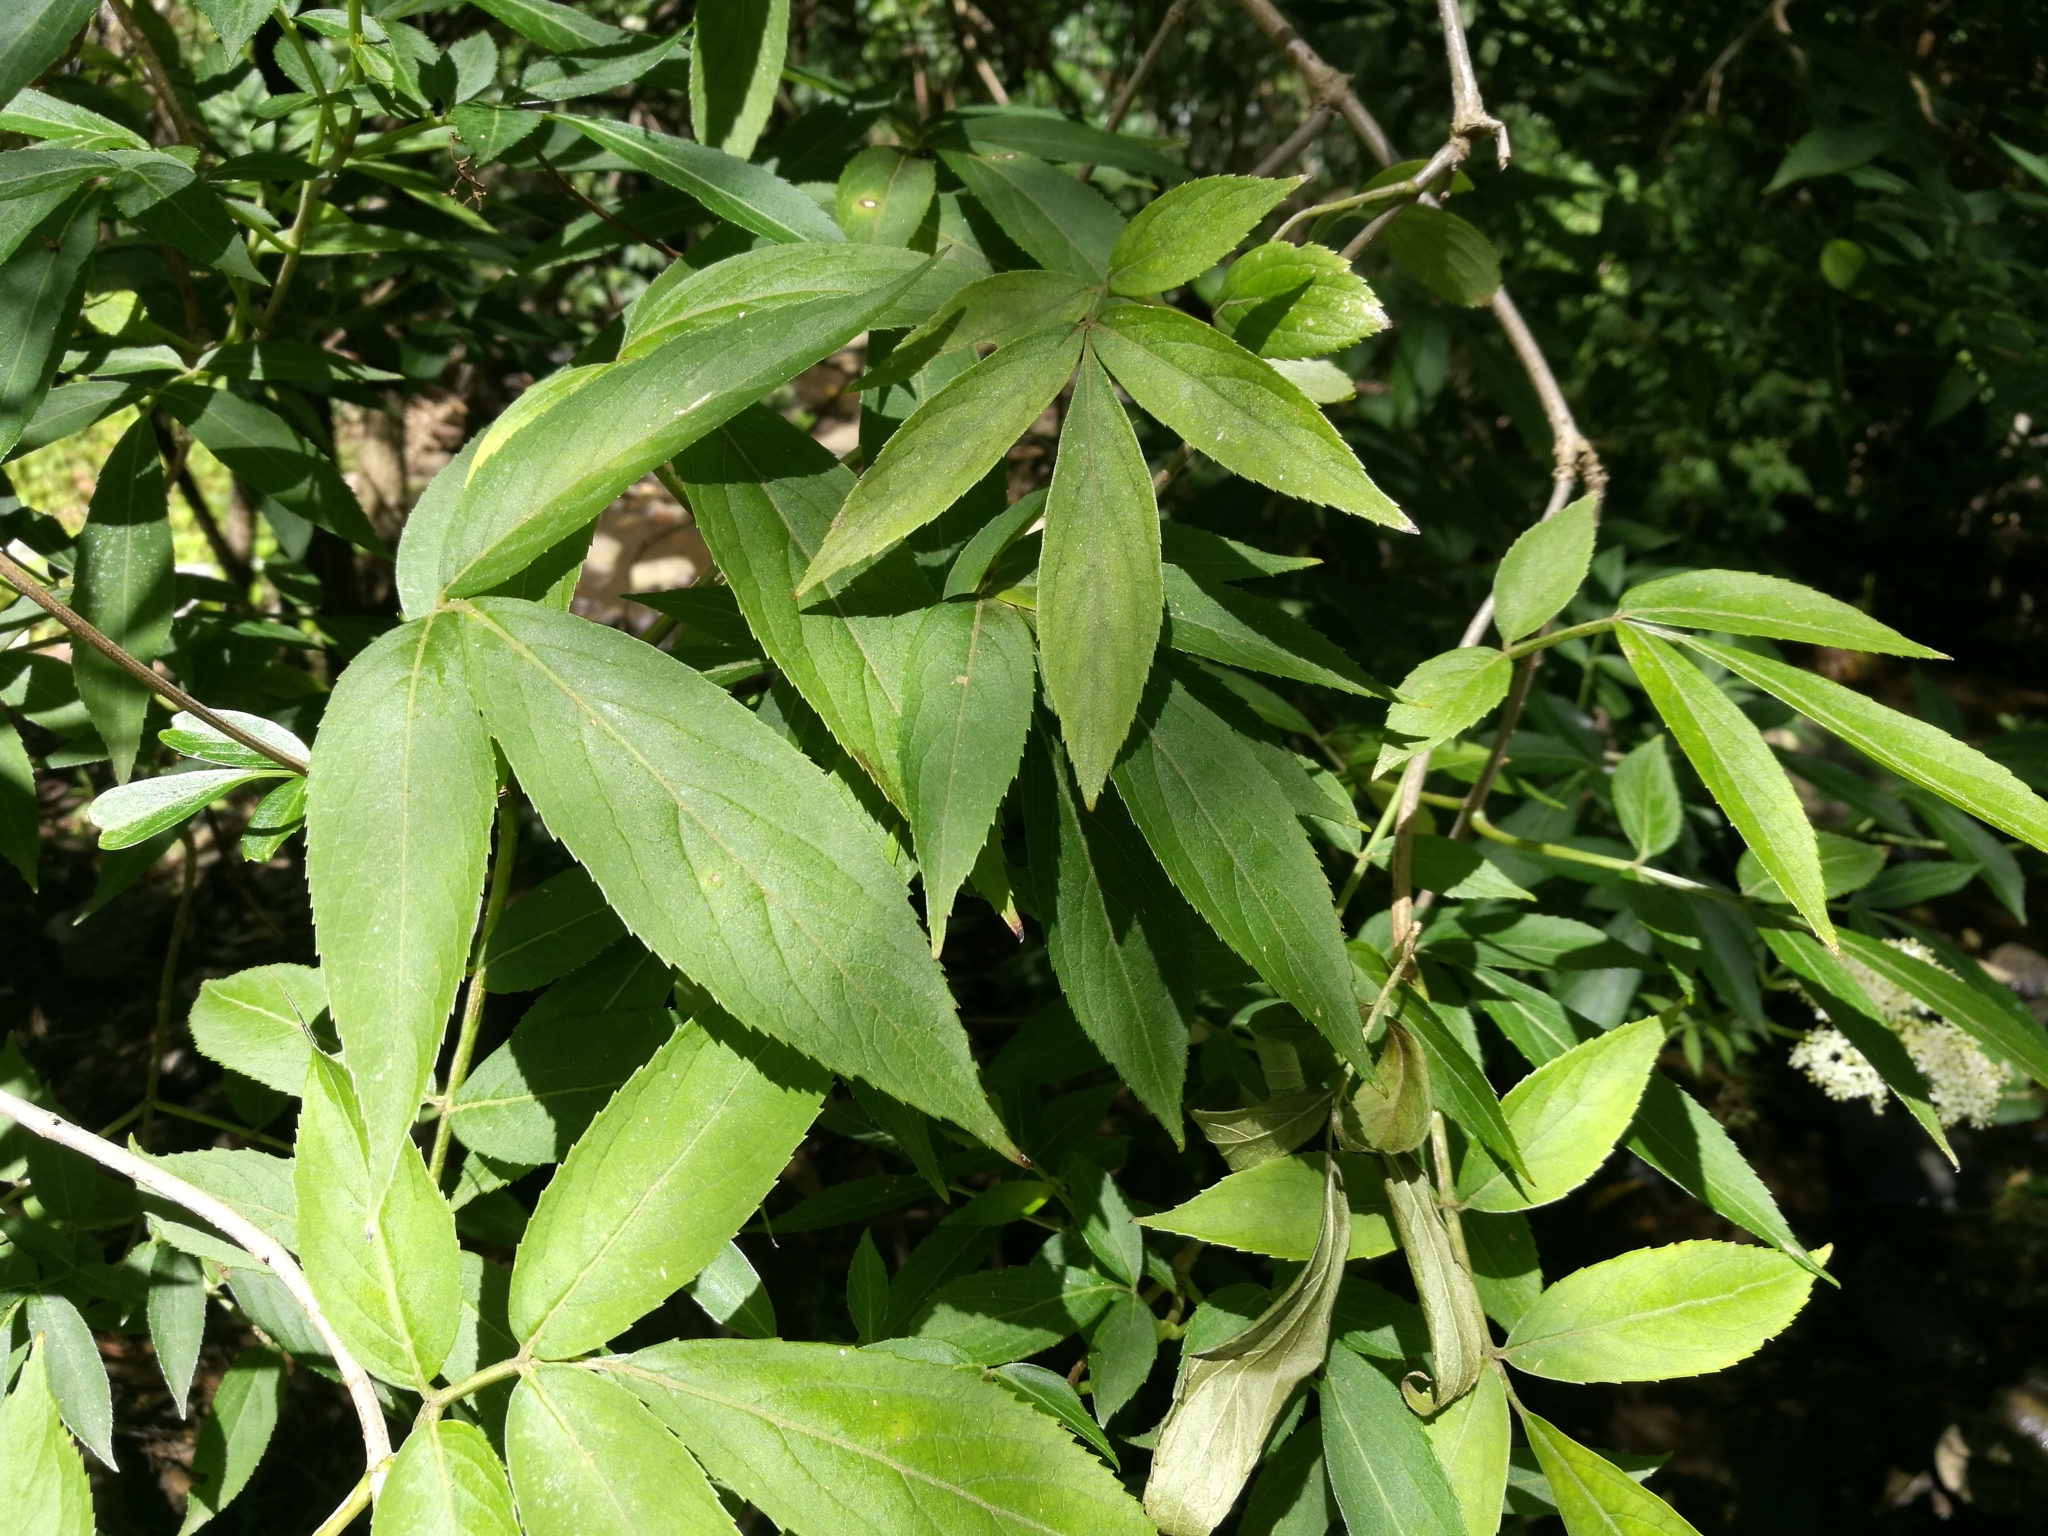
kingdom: Plantae
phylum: Tracheophyta
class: Magnoliopsida
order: Dipsacales
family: Viburnaceae
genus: Sambucus
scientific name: Sambucus nigra
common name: Elder
